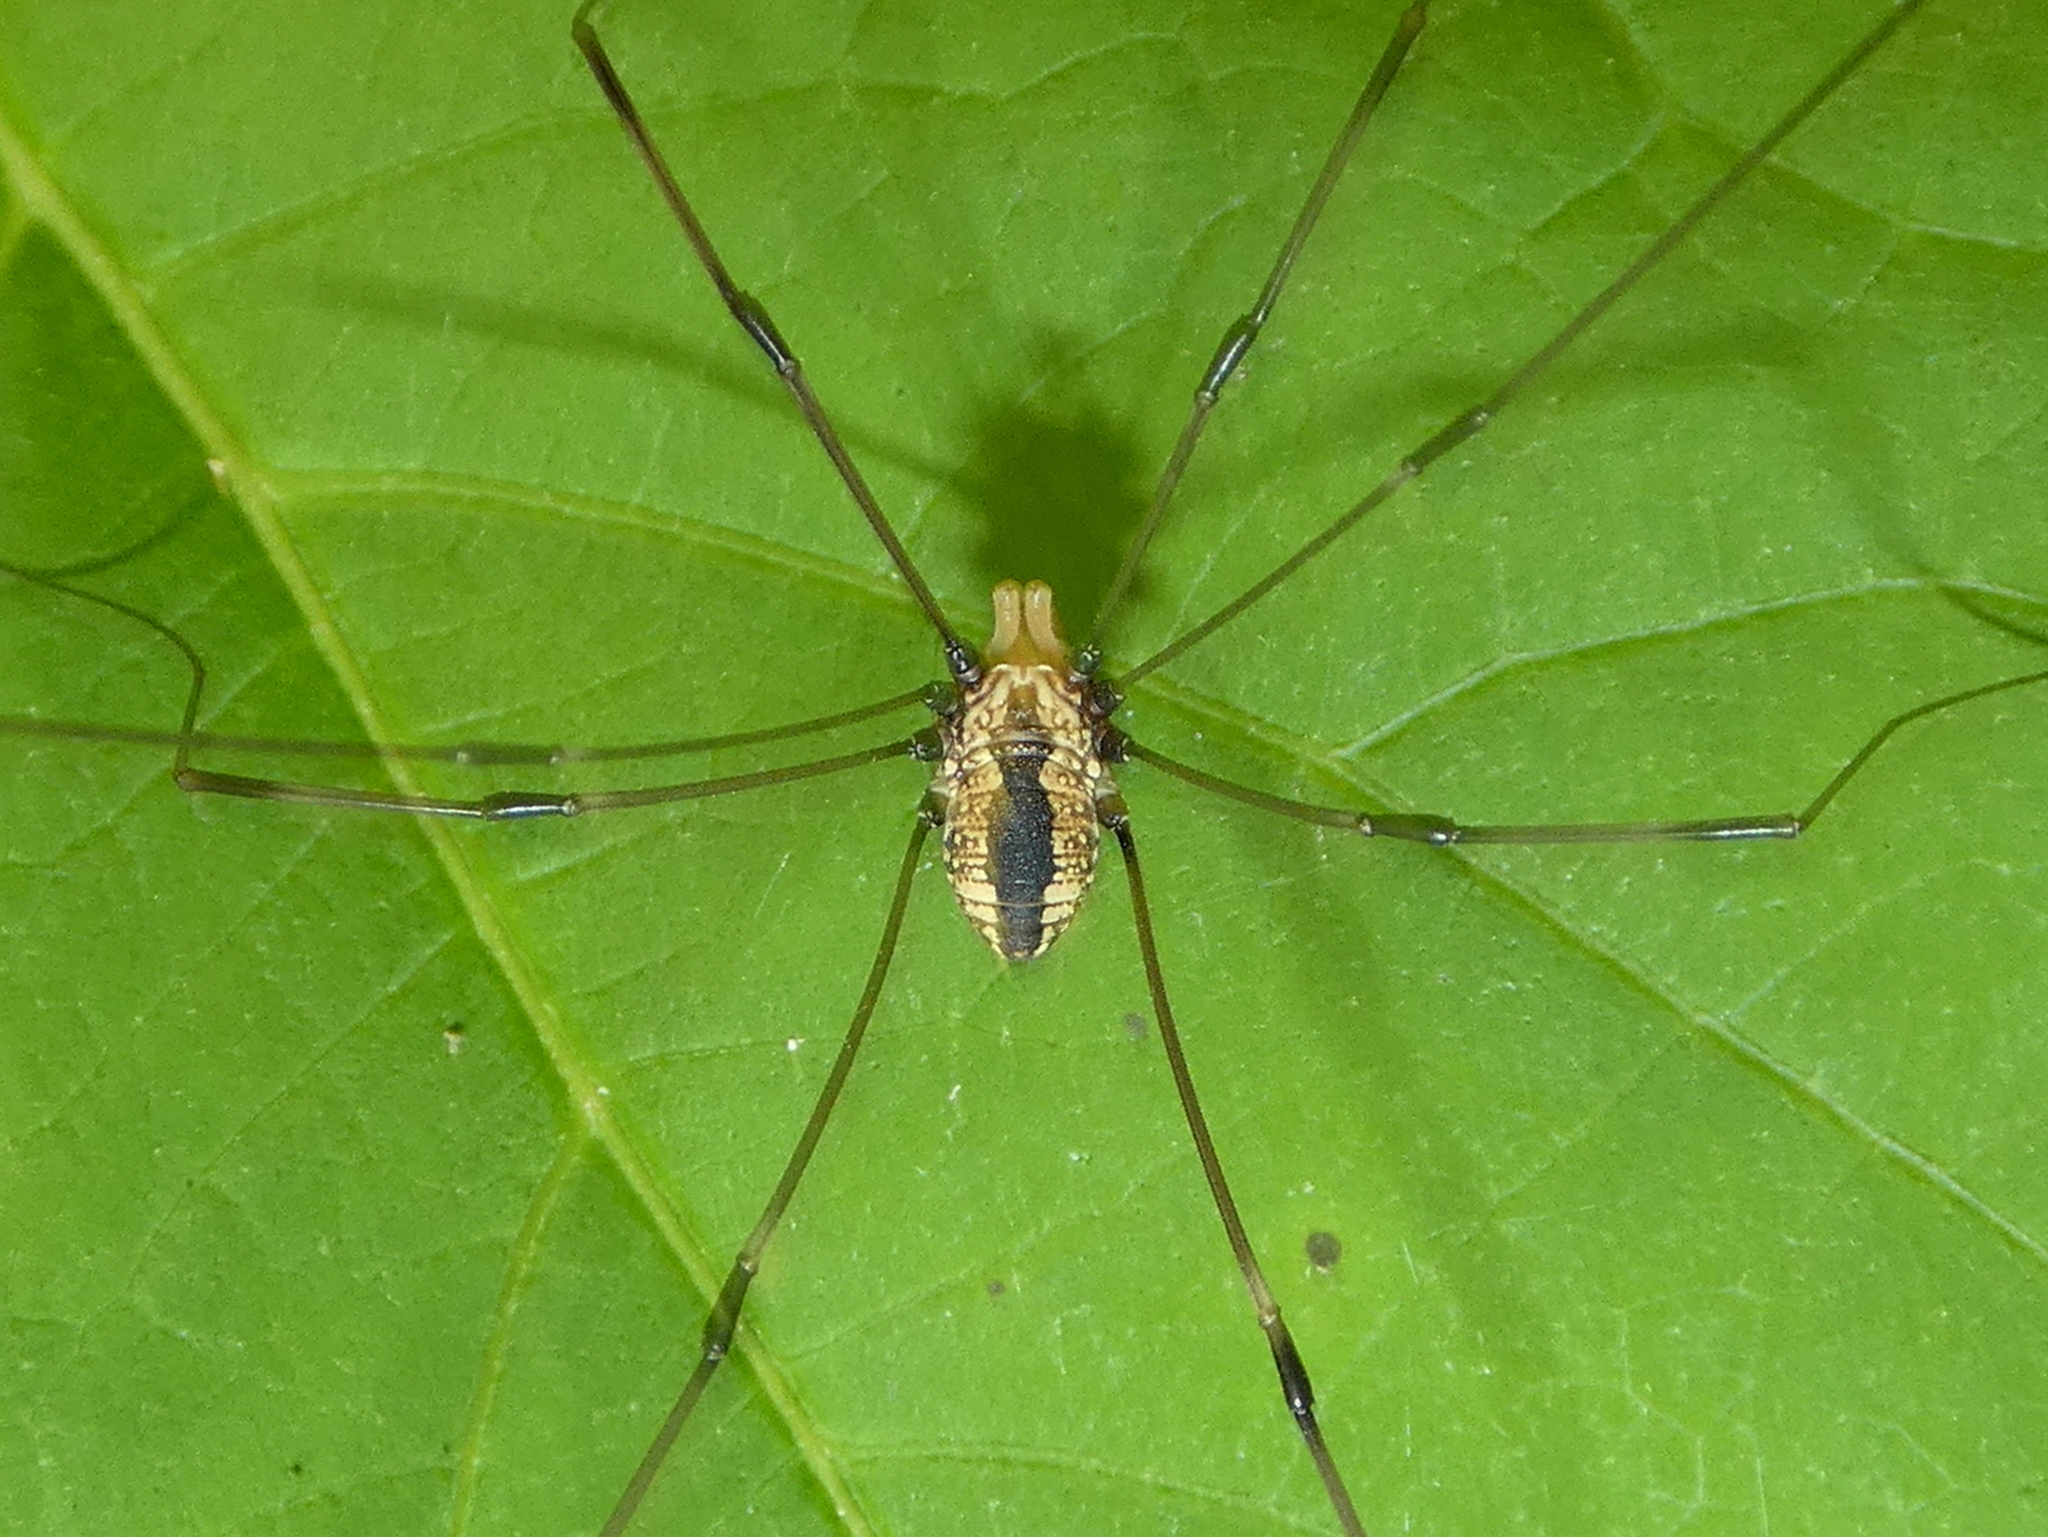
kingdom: Animalia
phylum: Arthropoda
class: Arachnida
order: Opiliones
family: Sclerosomatidae
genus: Leiobunum
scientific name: Leiobunum vittatum
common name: Eastern harvestman
